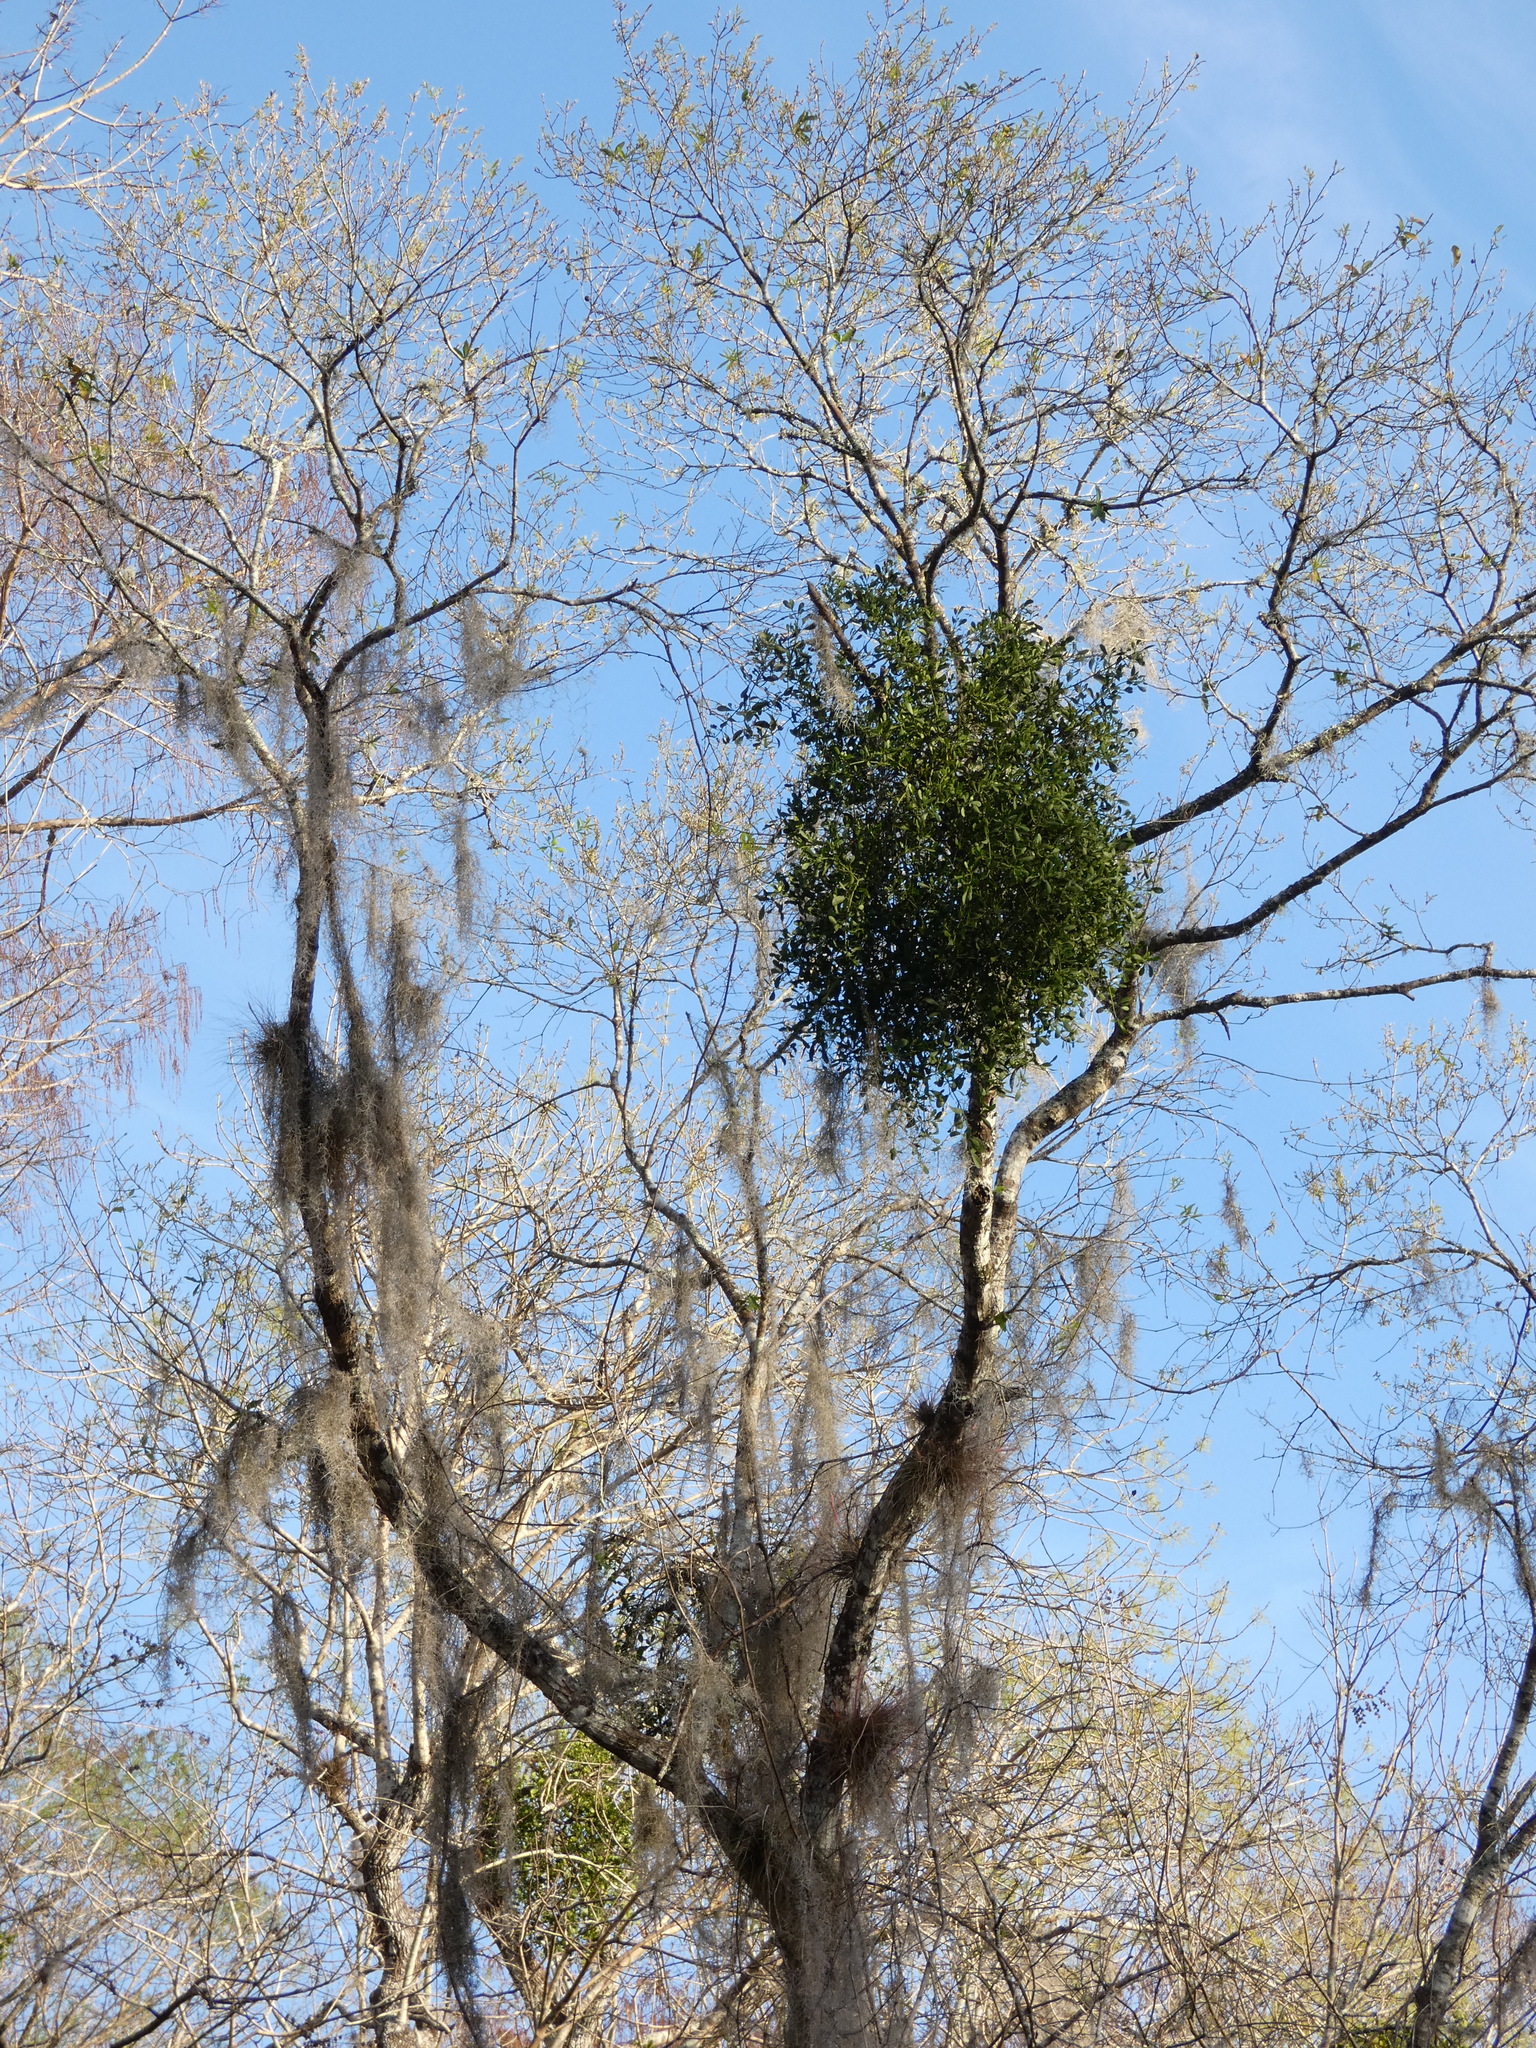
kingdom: Plantae
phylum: Tracheophyta
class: Magnoliopsida
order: Santalales
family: Viscaceae
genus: Phoradendron
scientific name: Phoradendron leucarpum
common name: Pacific mistletoe
